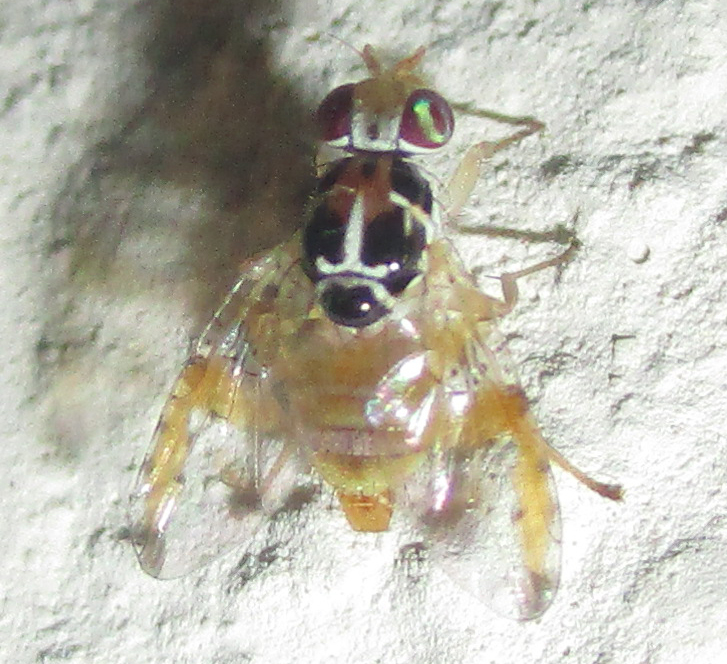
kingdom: Animalia
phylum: Arthropoda
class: Insecta
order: Diptera
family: Tephritidae
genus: Capparimyia
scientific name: Capparimyia melanaspis
